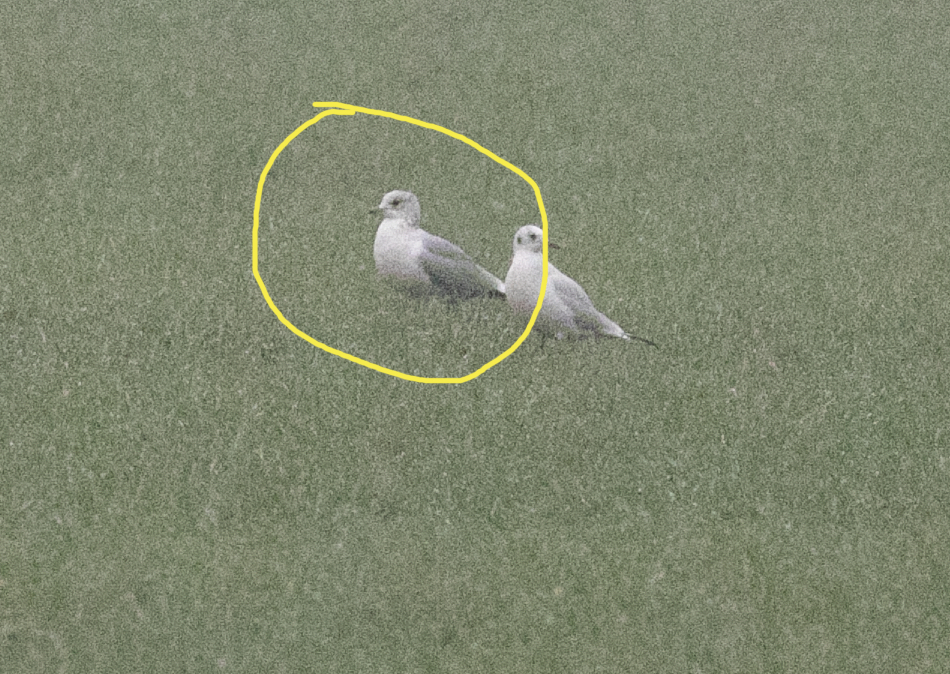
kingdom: Animalia
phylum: Chordata
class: Aves
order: Charadriiformes
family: Laridae
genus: Larus
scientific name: Larus canus
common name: Mew gull
